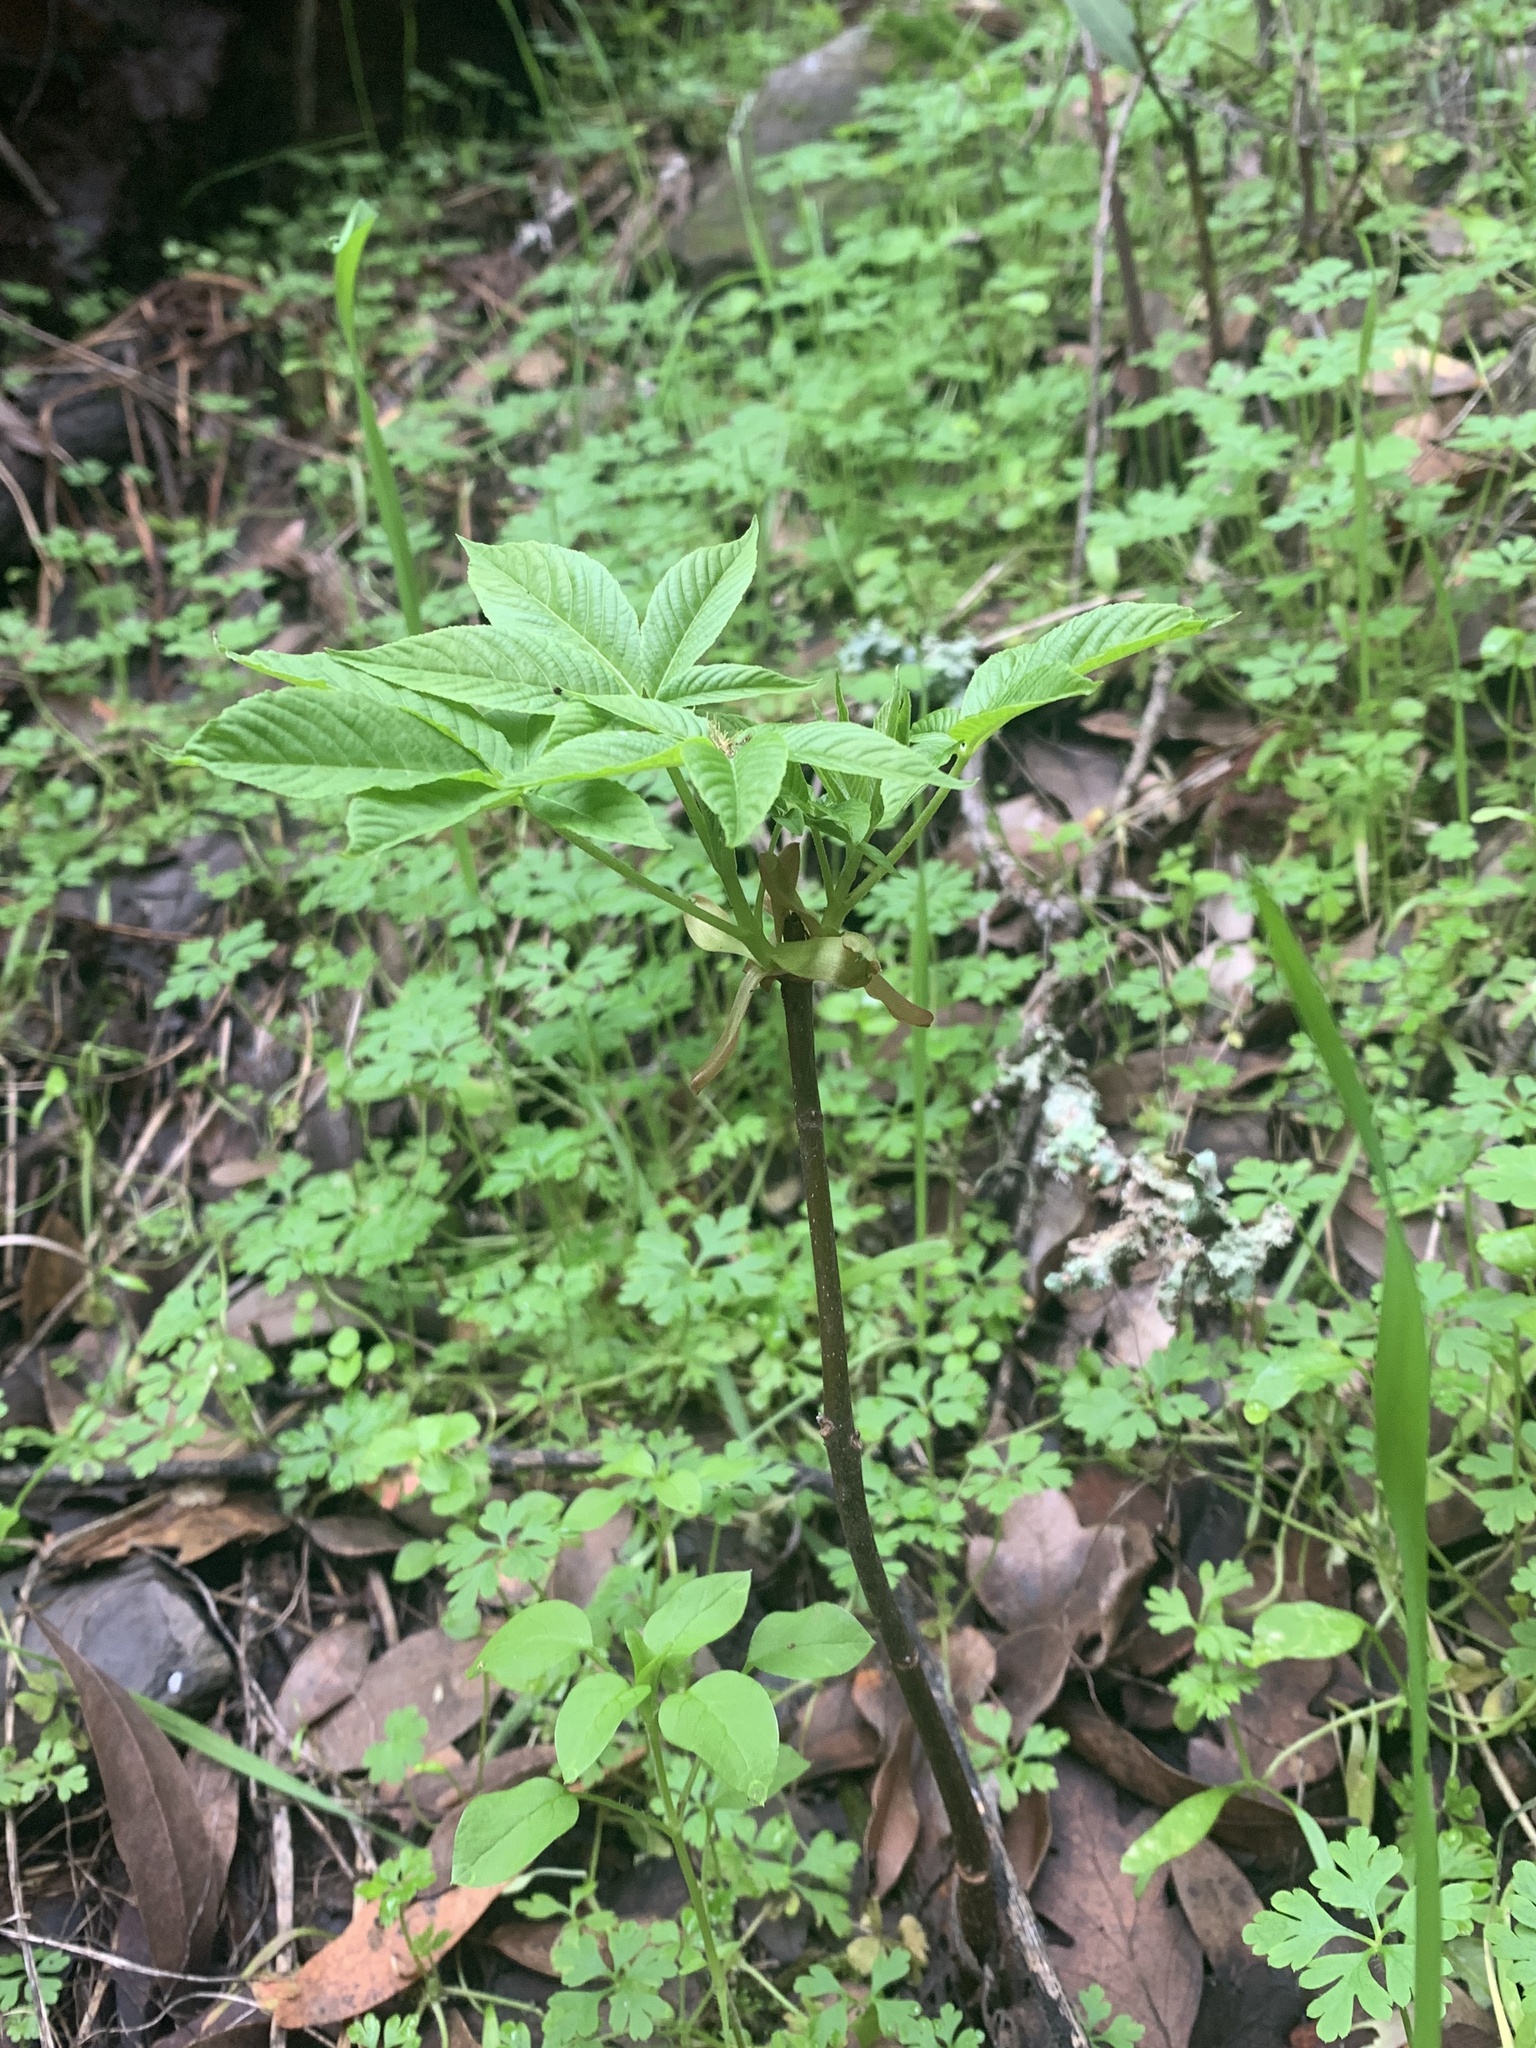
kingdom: Plantae
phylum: Tracheophyta
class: Magnoliopsida
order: Sapindales
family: Sapindaceae
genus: Aesculus
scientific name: Aesculus californica
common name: California buckeye
